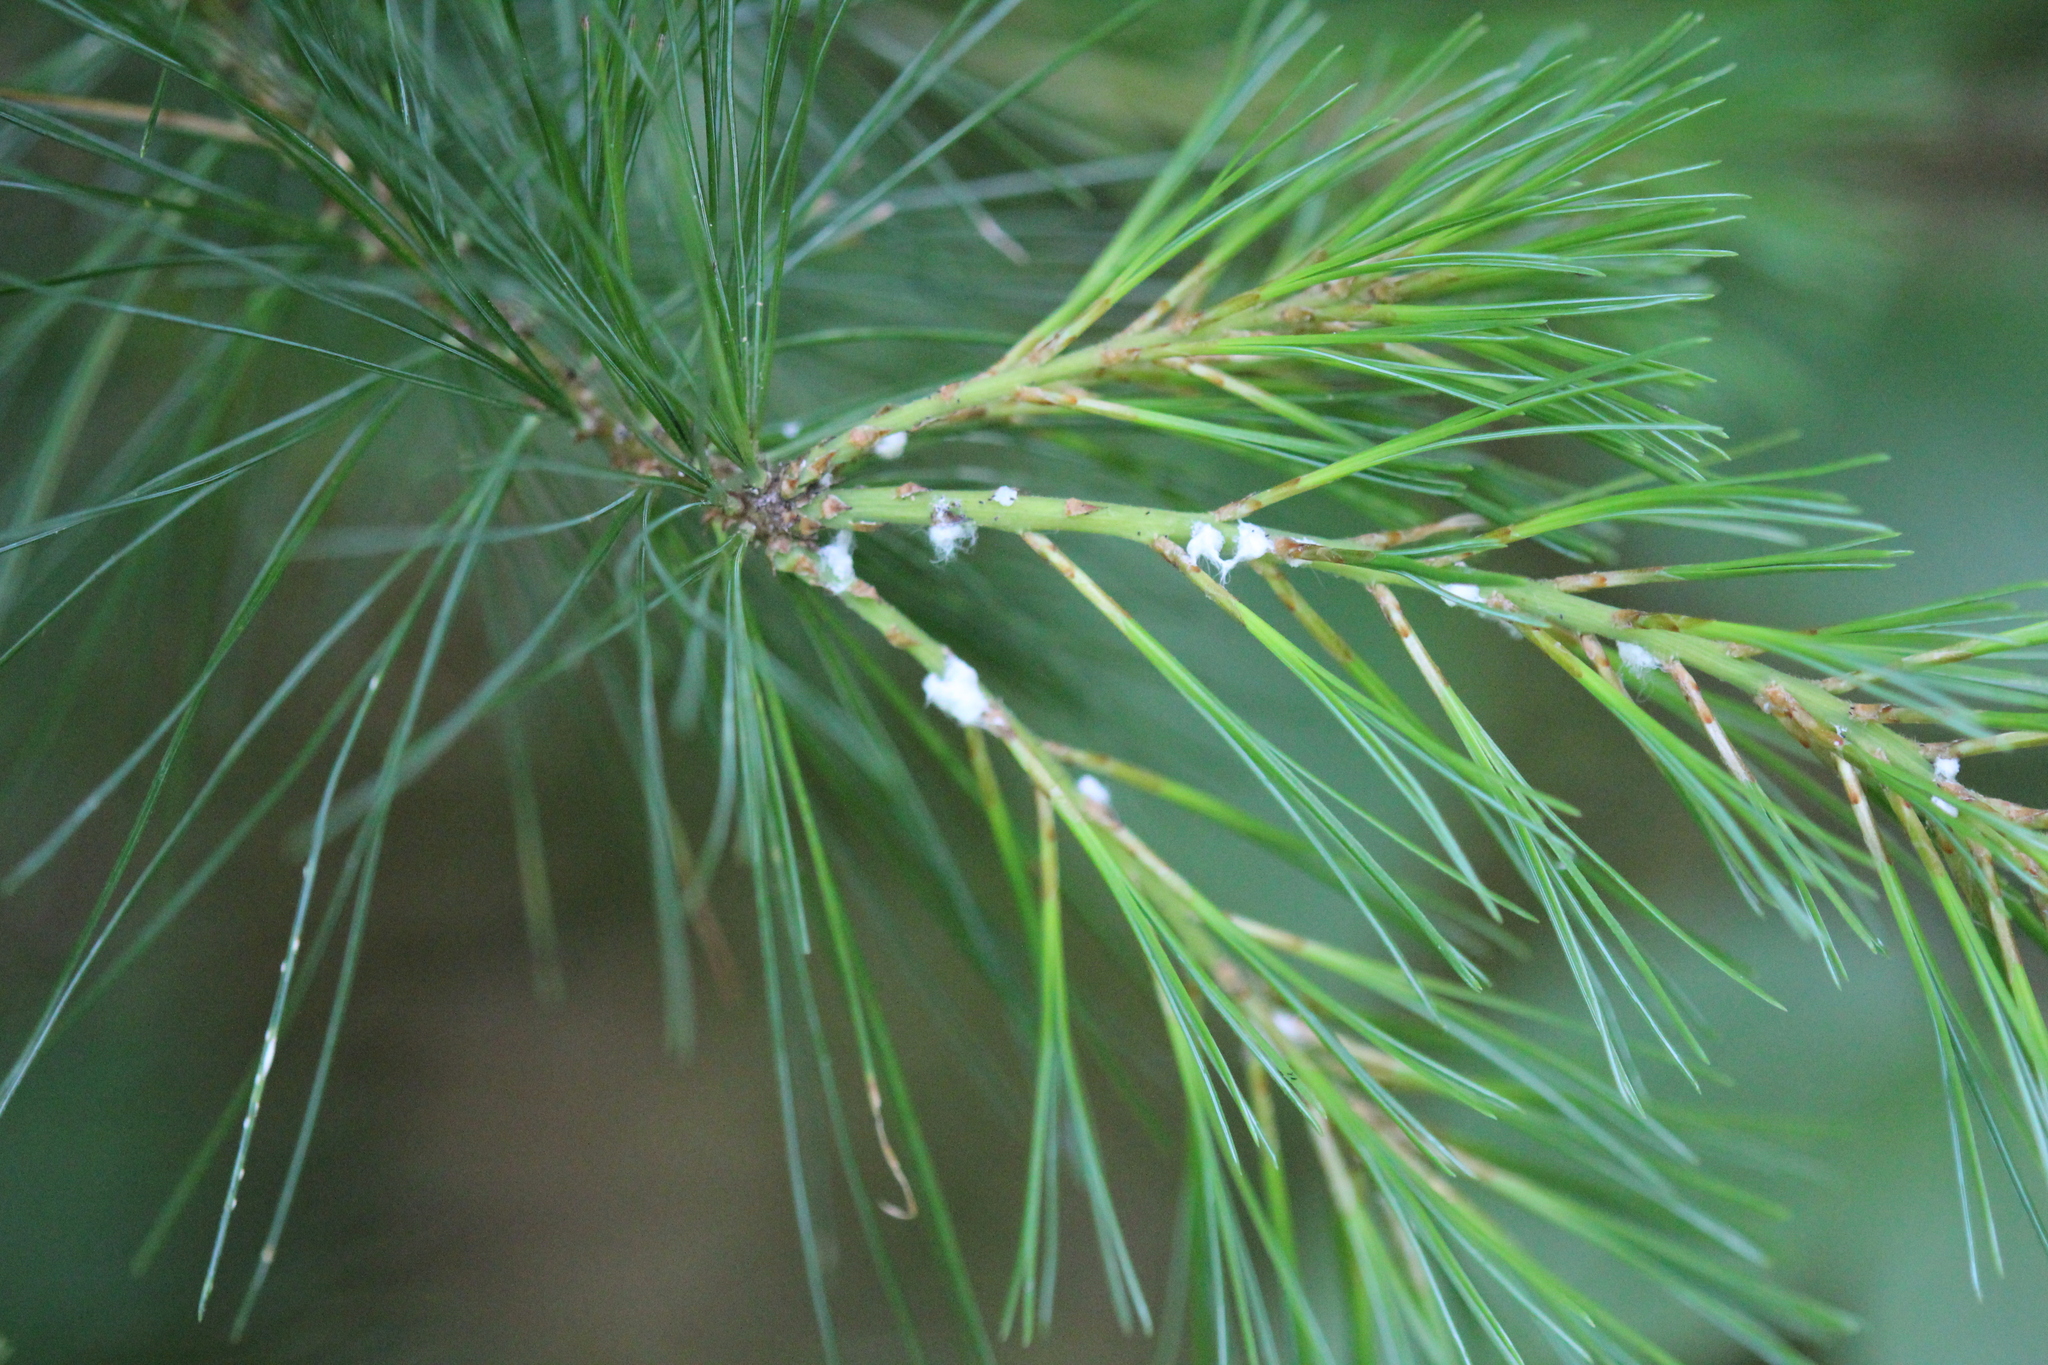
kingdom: Plantae
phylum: Tracheophyta
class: Pinopsida
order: Pinales
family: Pinaceae
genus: Pinus
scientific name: Pinus strobus
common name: Weymouth pine
